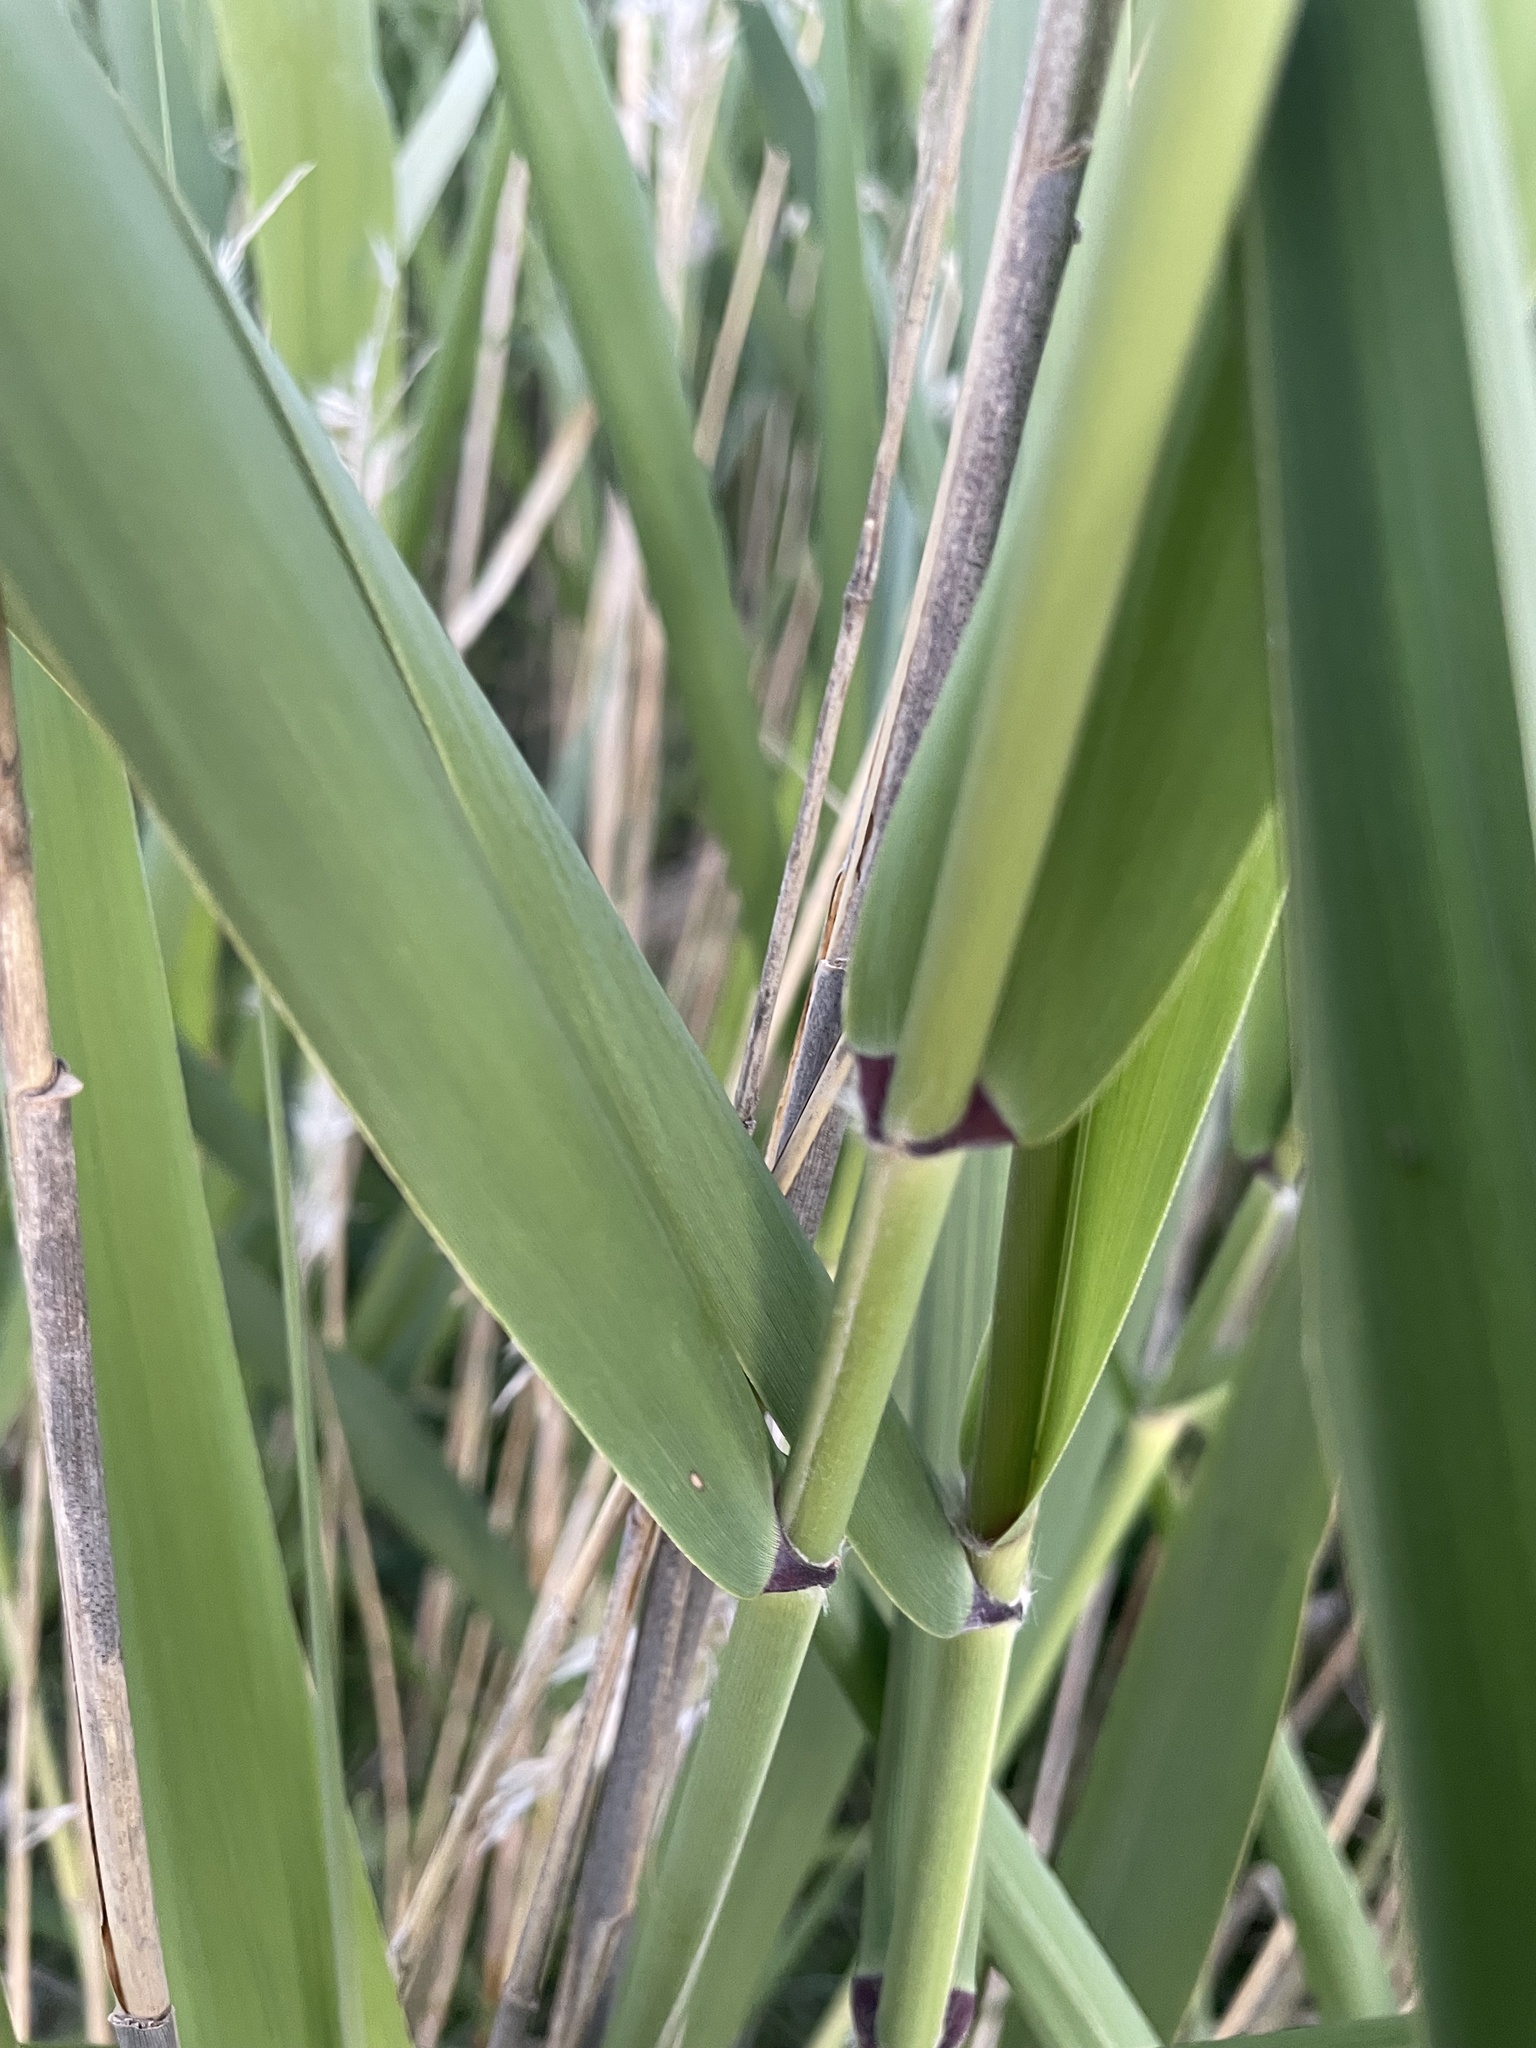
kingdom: Plantae
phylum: Tracheophyta
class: Liliopsida
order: Poales
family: Poaceae
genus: Phragmites
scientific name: Phragmites australis
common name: Common reed
